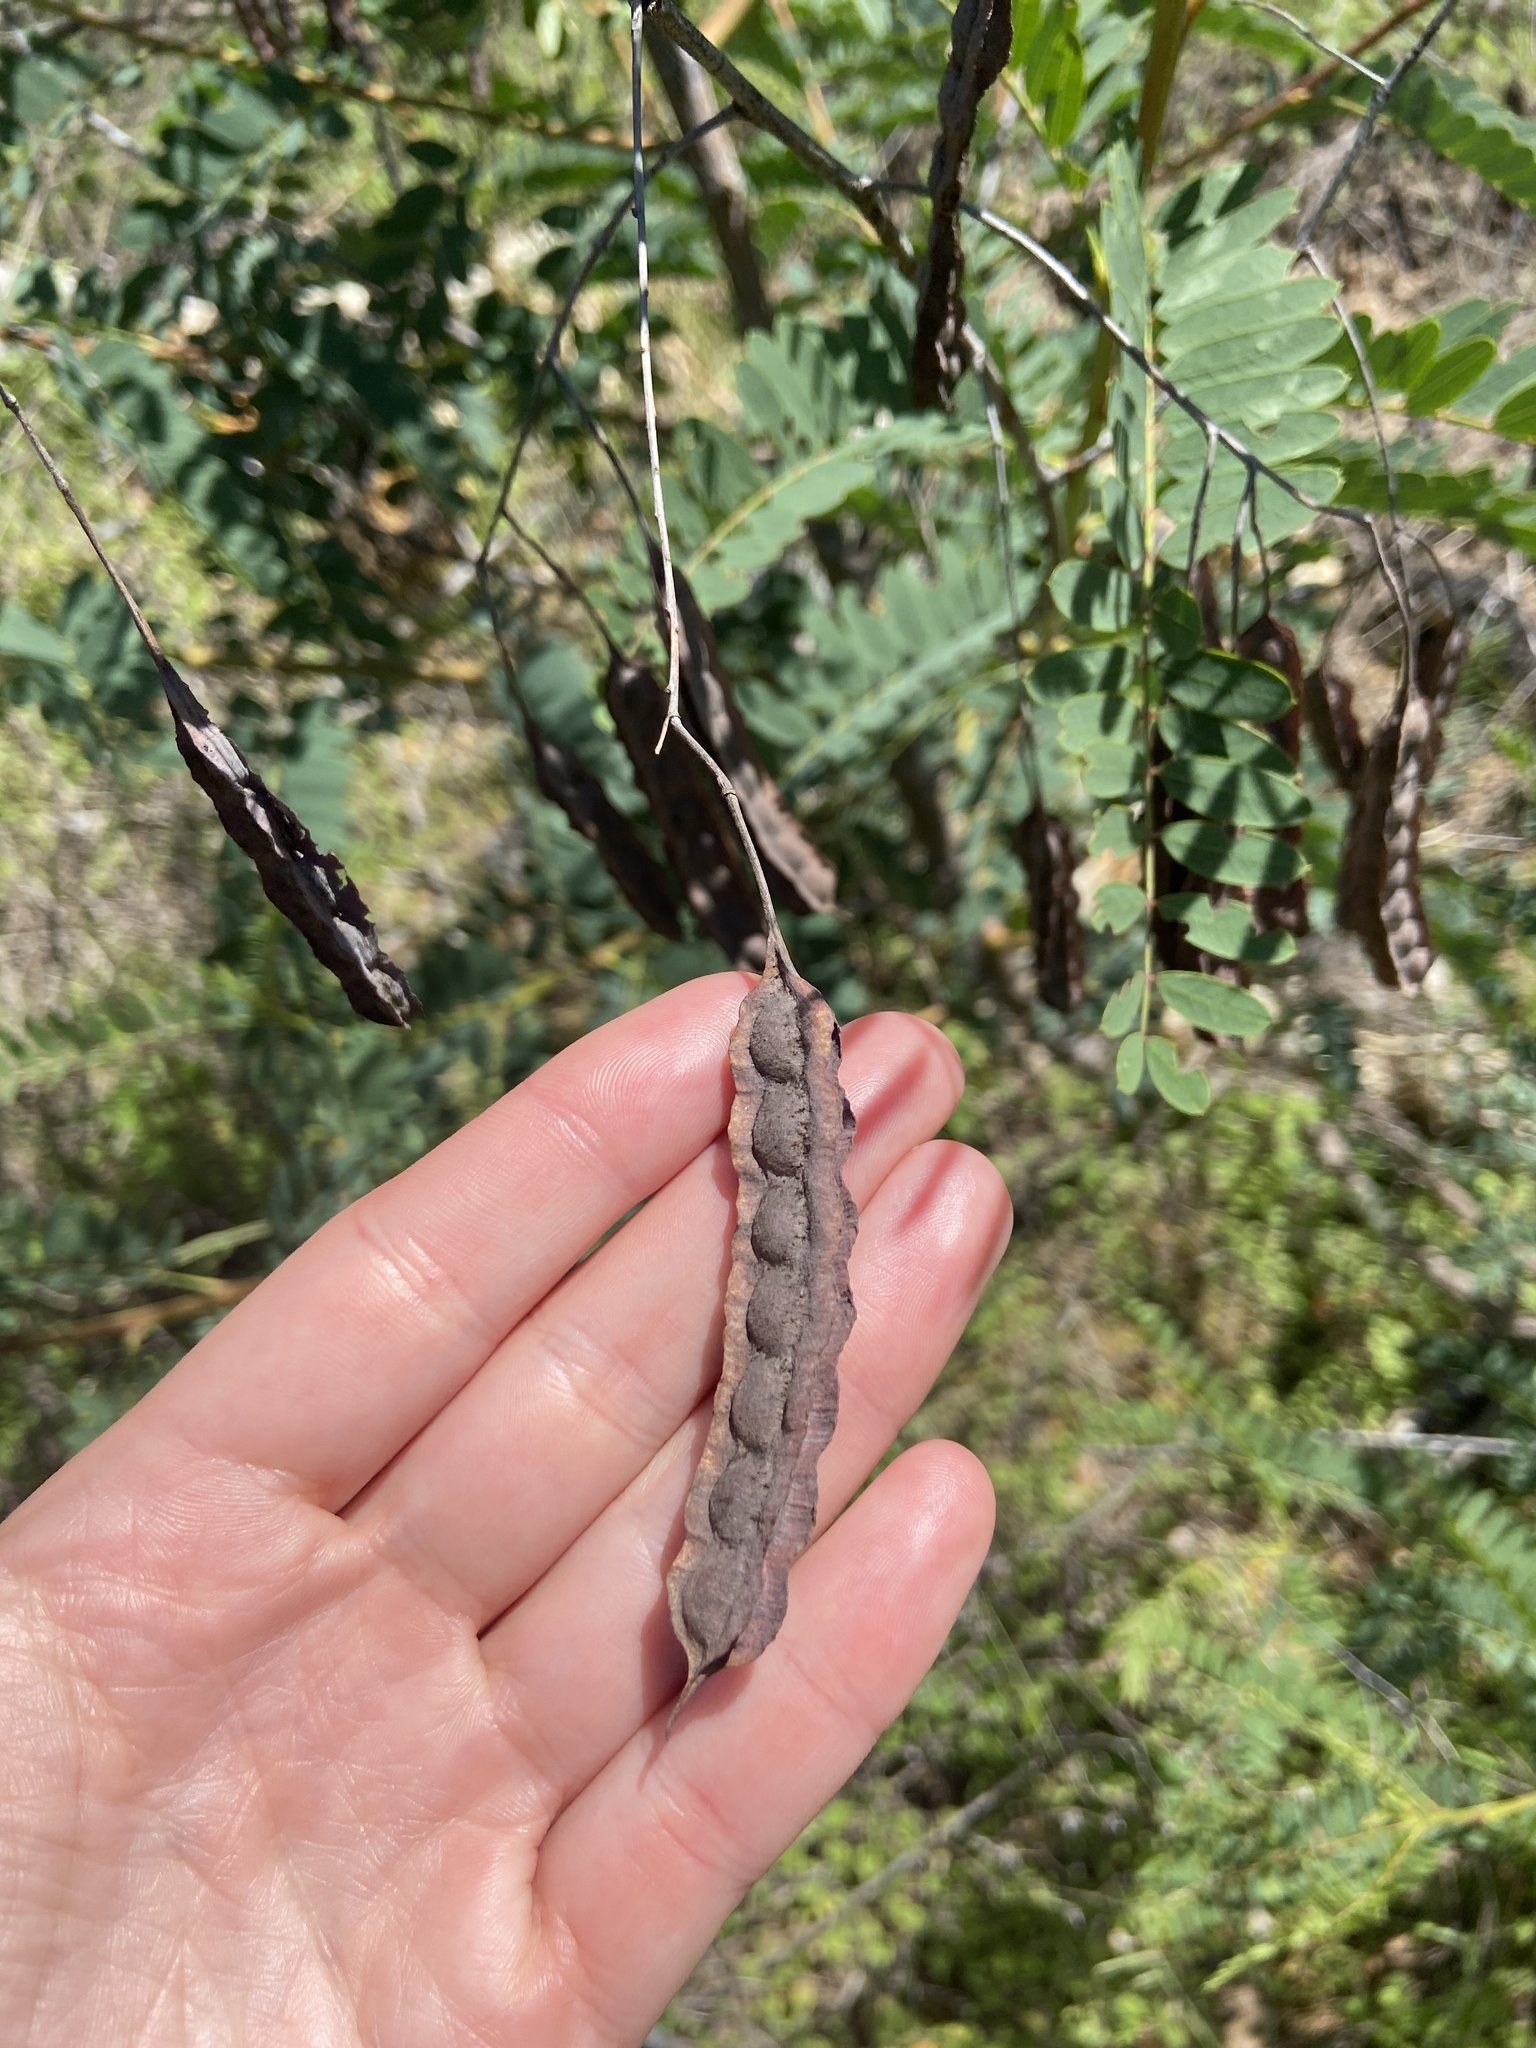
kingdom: Plantae
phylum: Tracheophyta
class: Magnoliopsida
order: Fabales
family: Fabaceae
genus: Sesbania
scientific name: Sesbania drummondii
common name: Poison-bean
